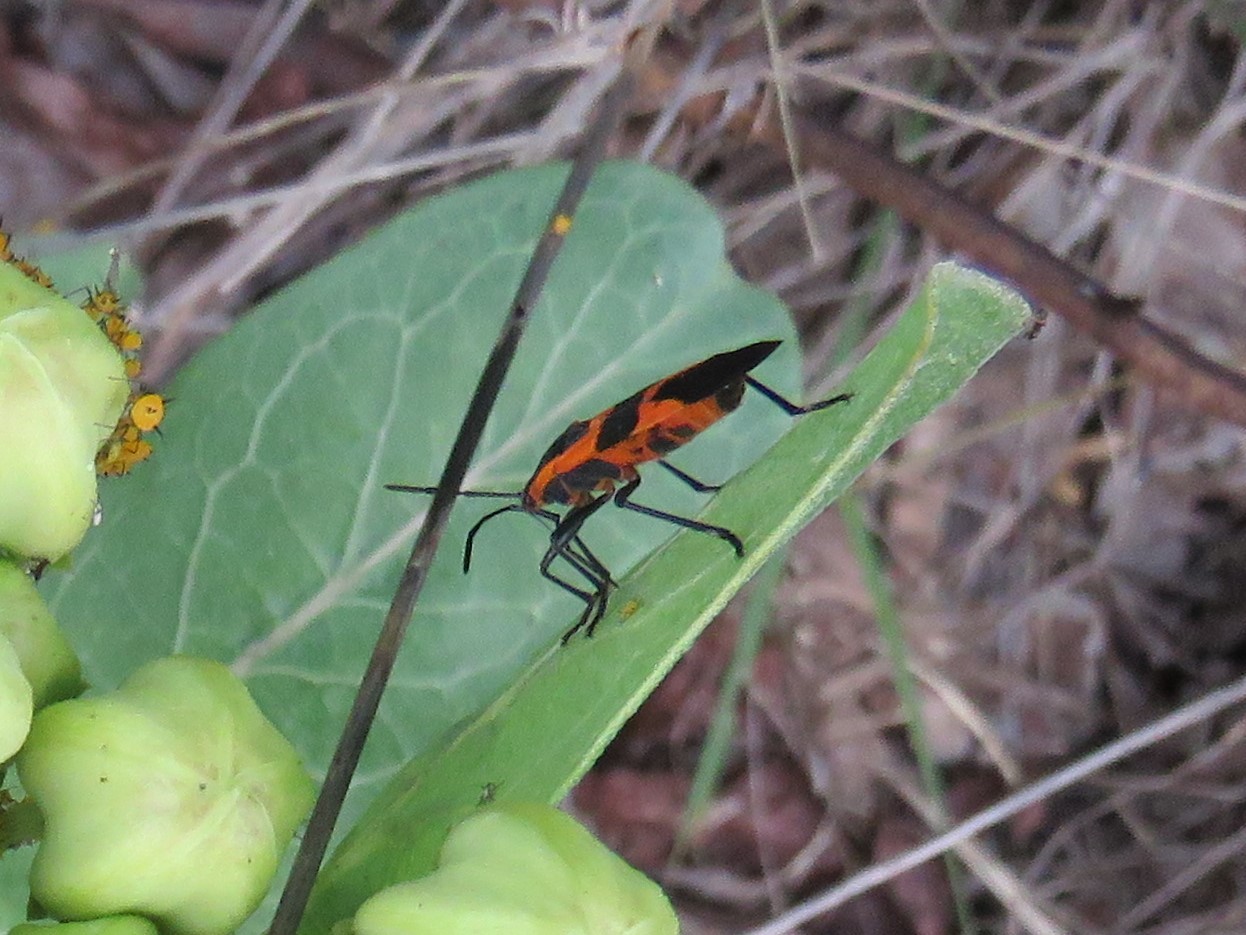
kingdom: Animalia
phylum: Arthropoda
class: Insecta
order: Hemiptera
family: Lygaeidae
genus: Oncopeltus
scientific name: Oncopeltus fasciatus
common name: Large milkweed bug
